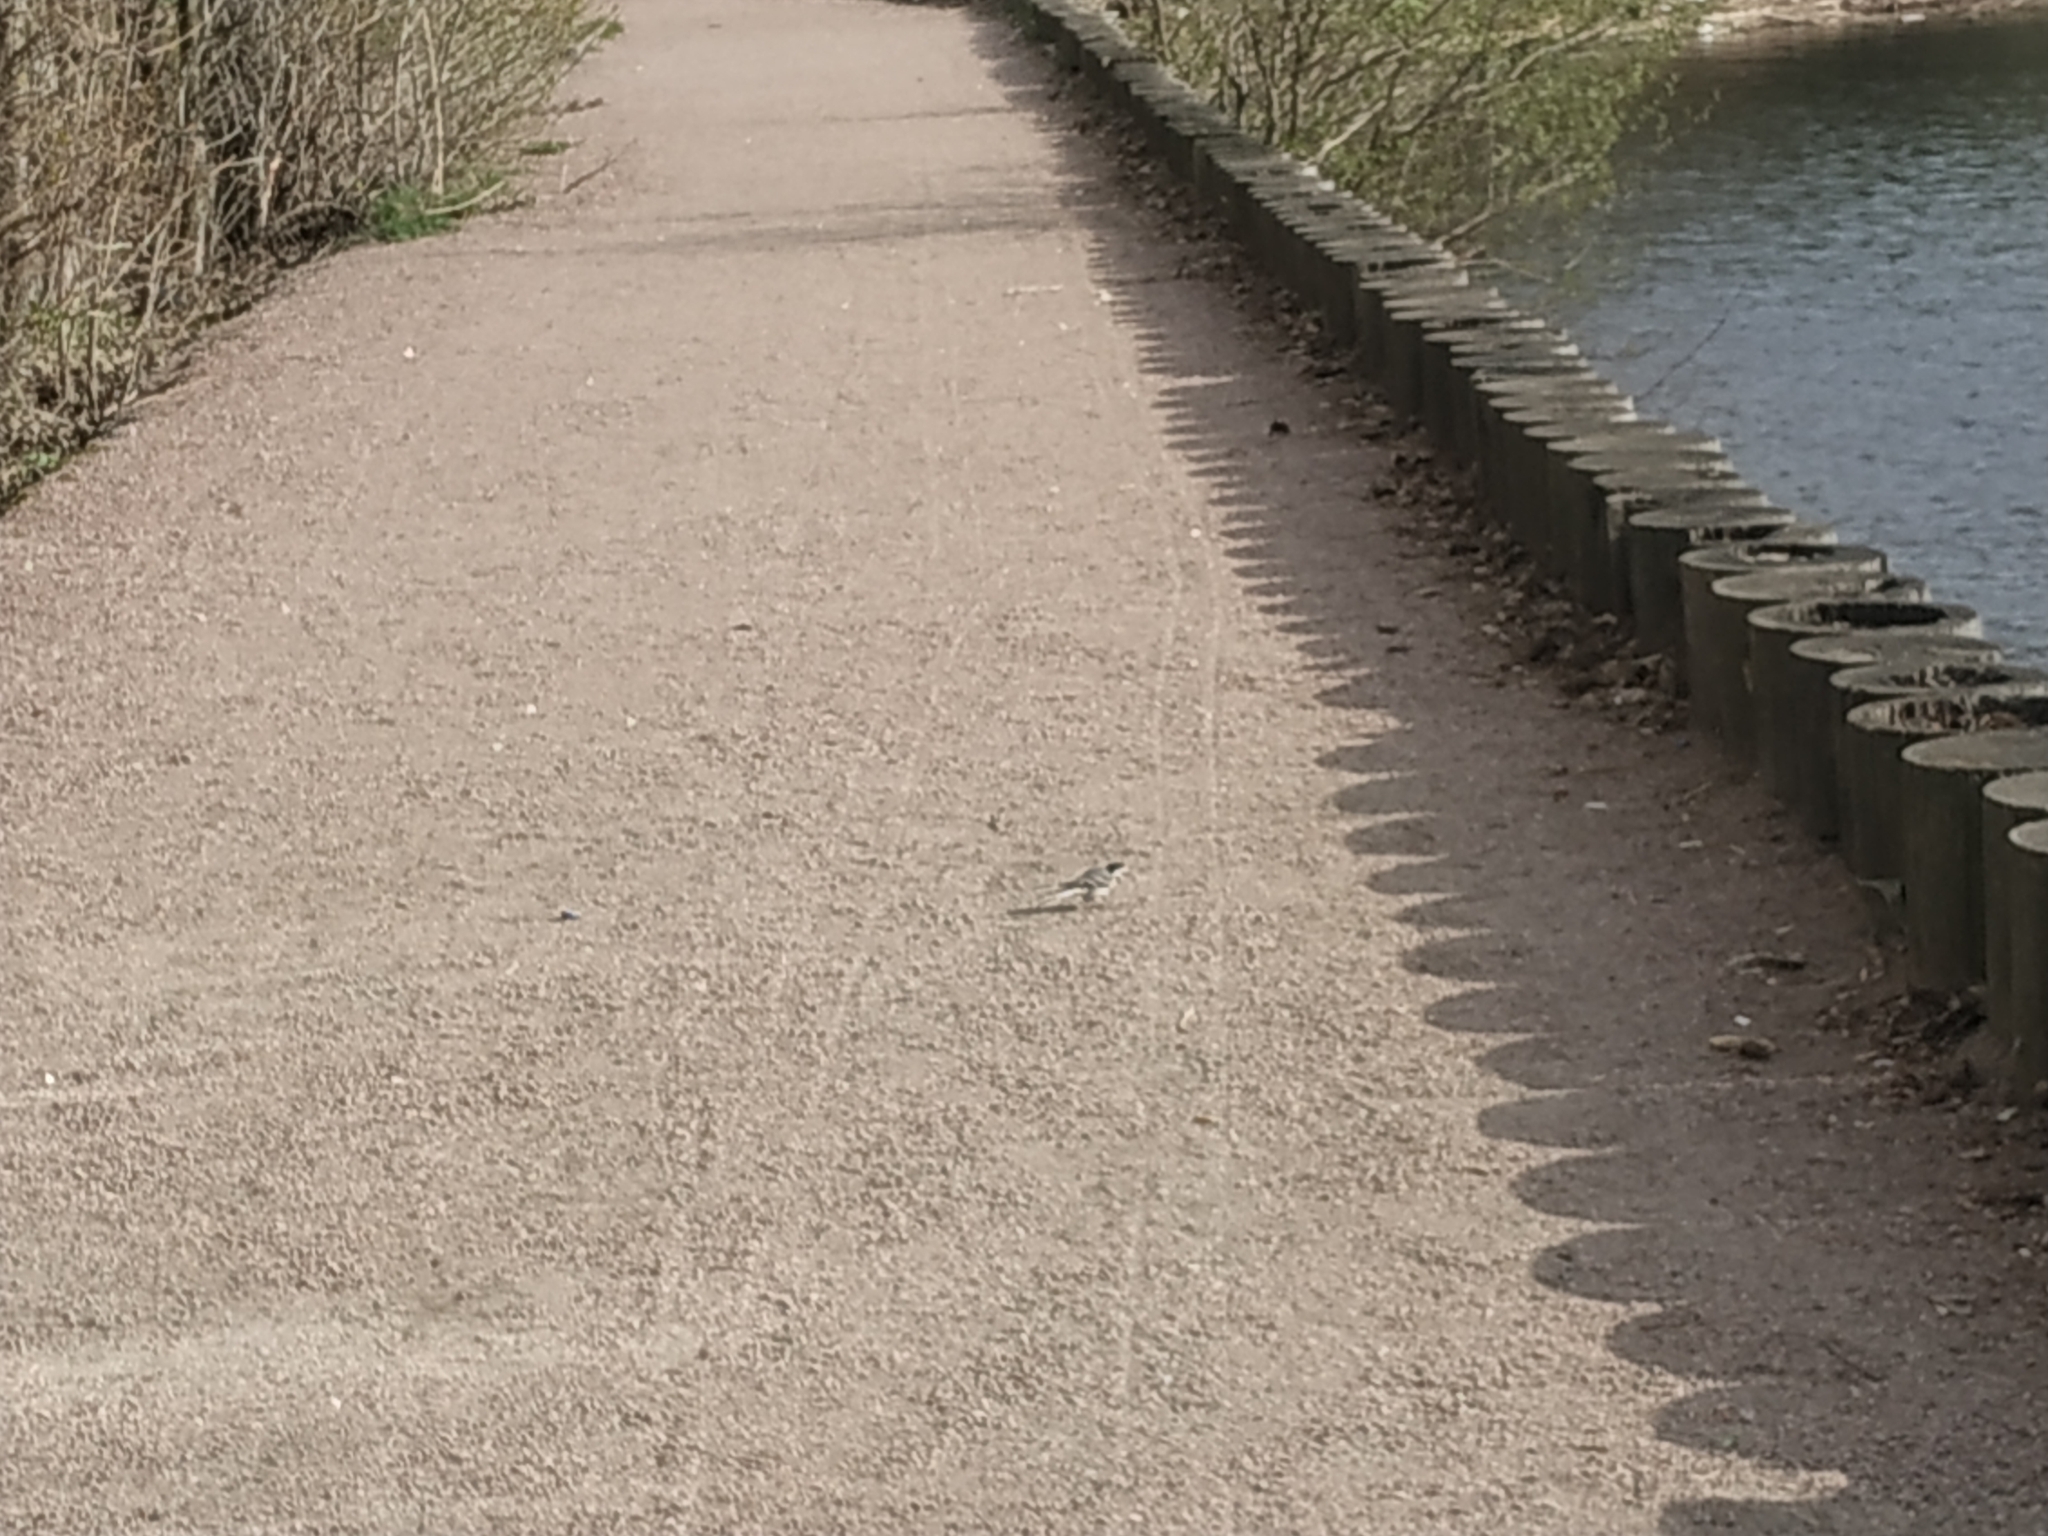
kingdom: Animalia
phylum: Chordata
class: Aves
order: Passeriformes
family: Motacillidae
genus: Motacilla
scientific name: Motacilla alba
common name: White wagtail
